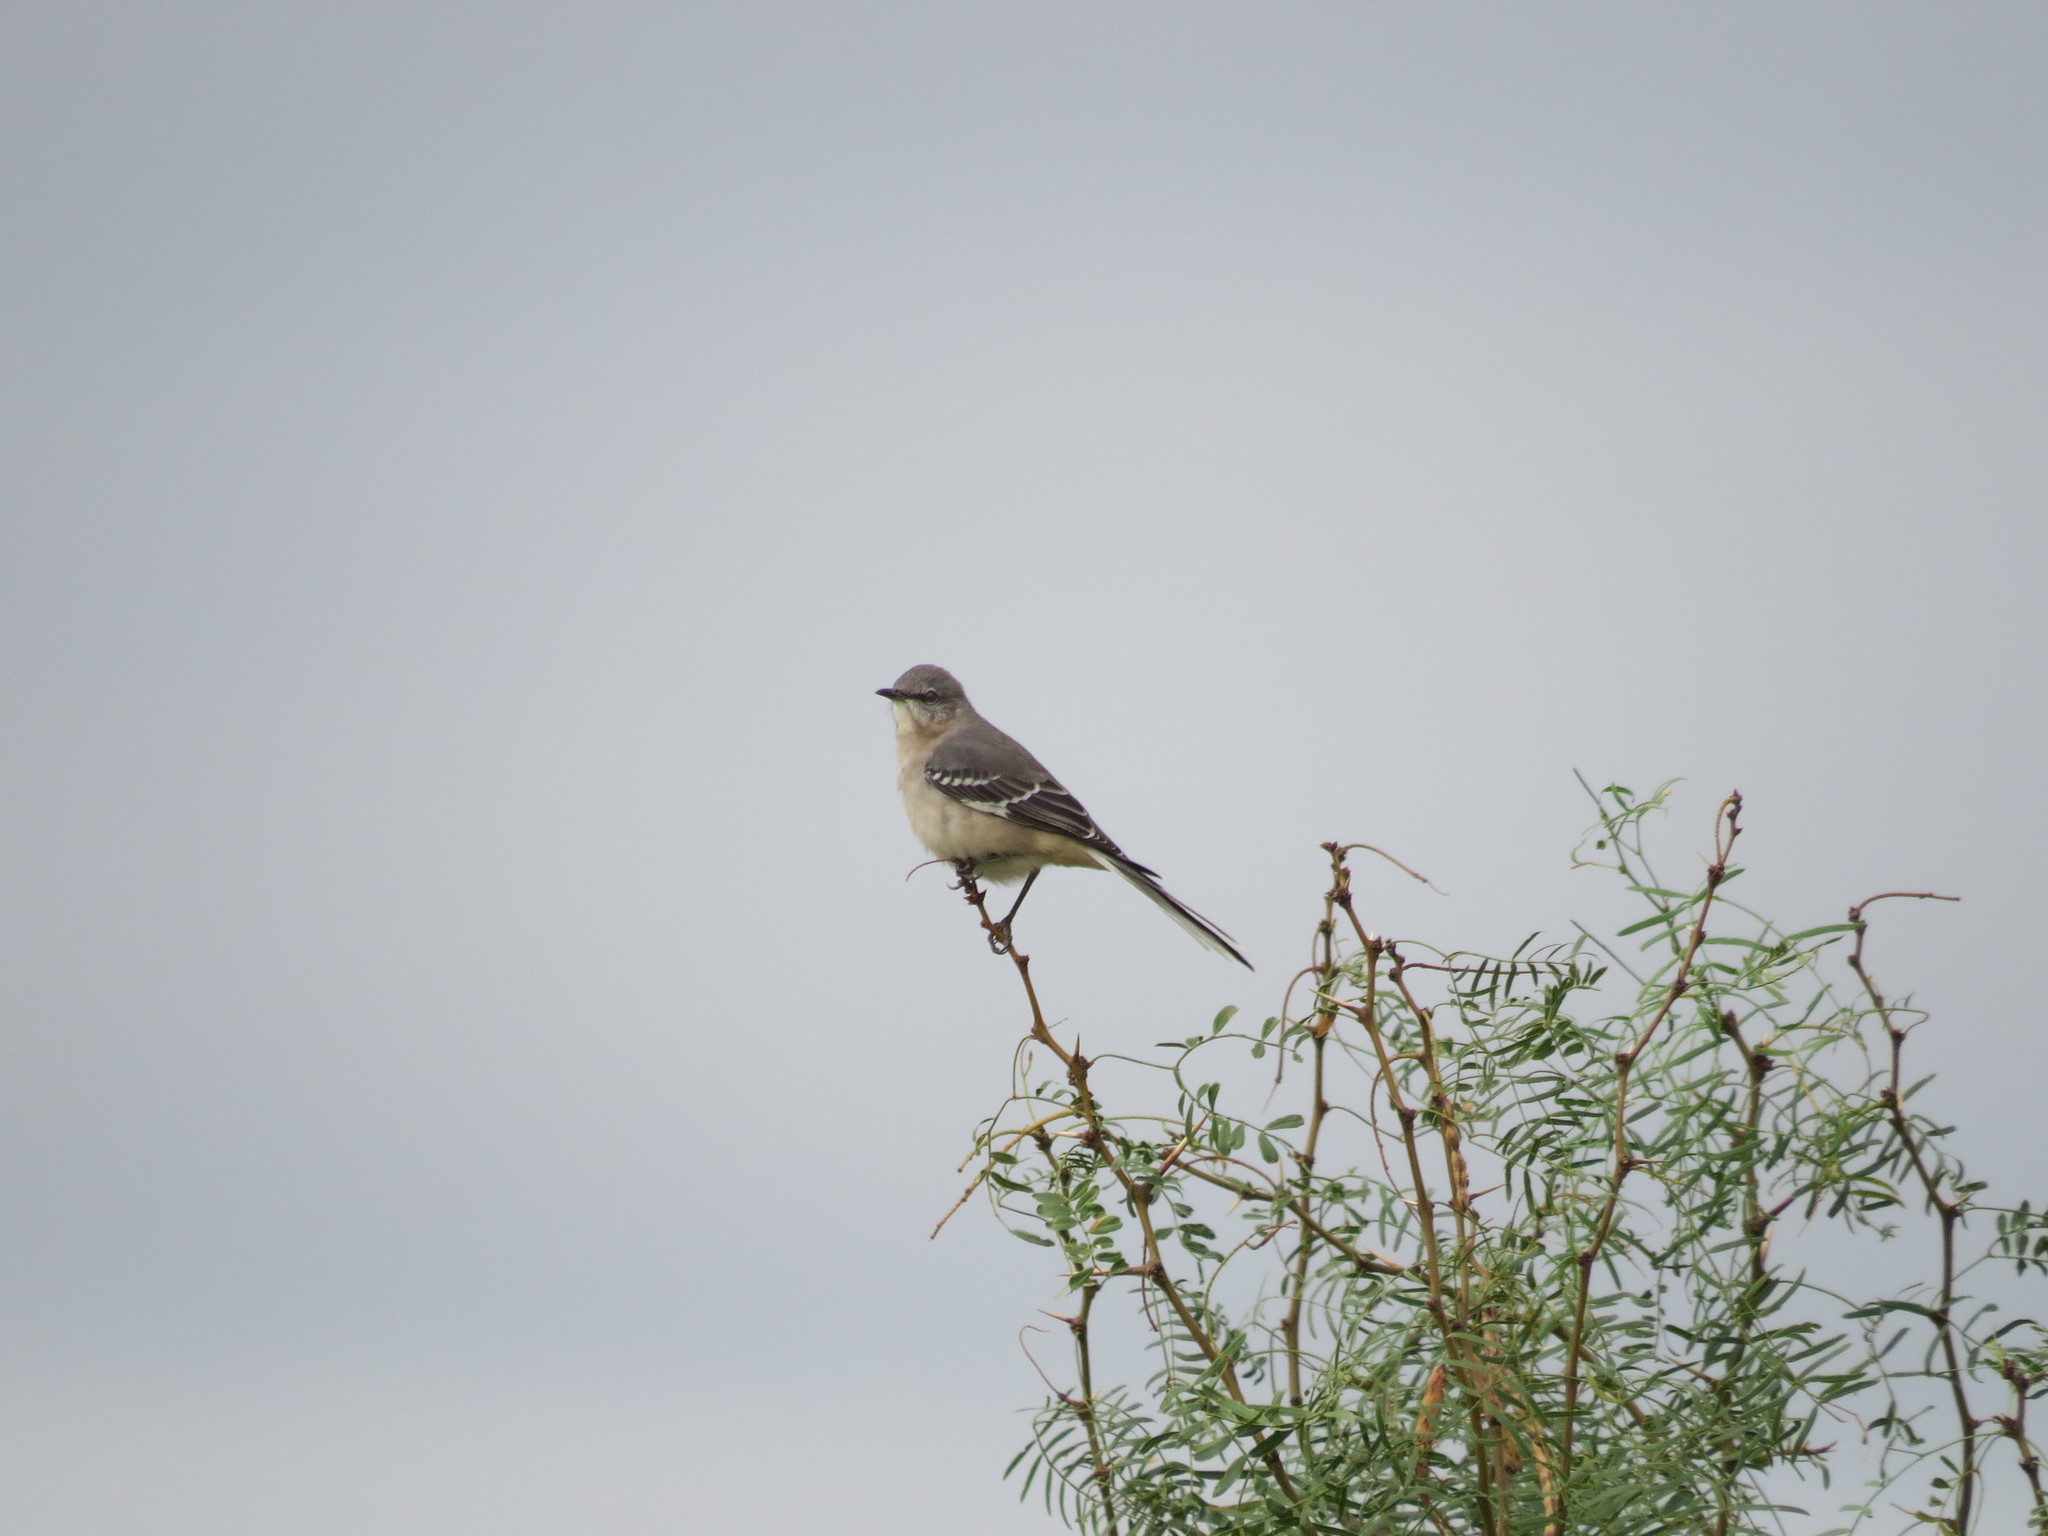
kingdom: Animalia
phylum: Chordata
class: Aves
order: Passeriformes
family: Mimidae
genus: Mimus
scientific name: Mimus polyglottos
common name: Northern mockingbird
